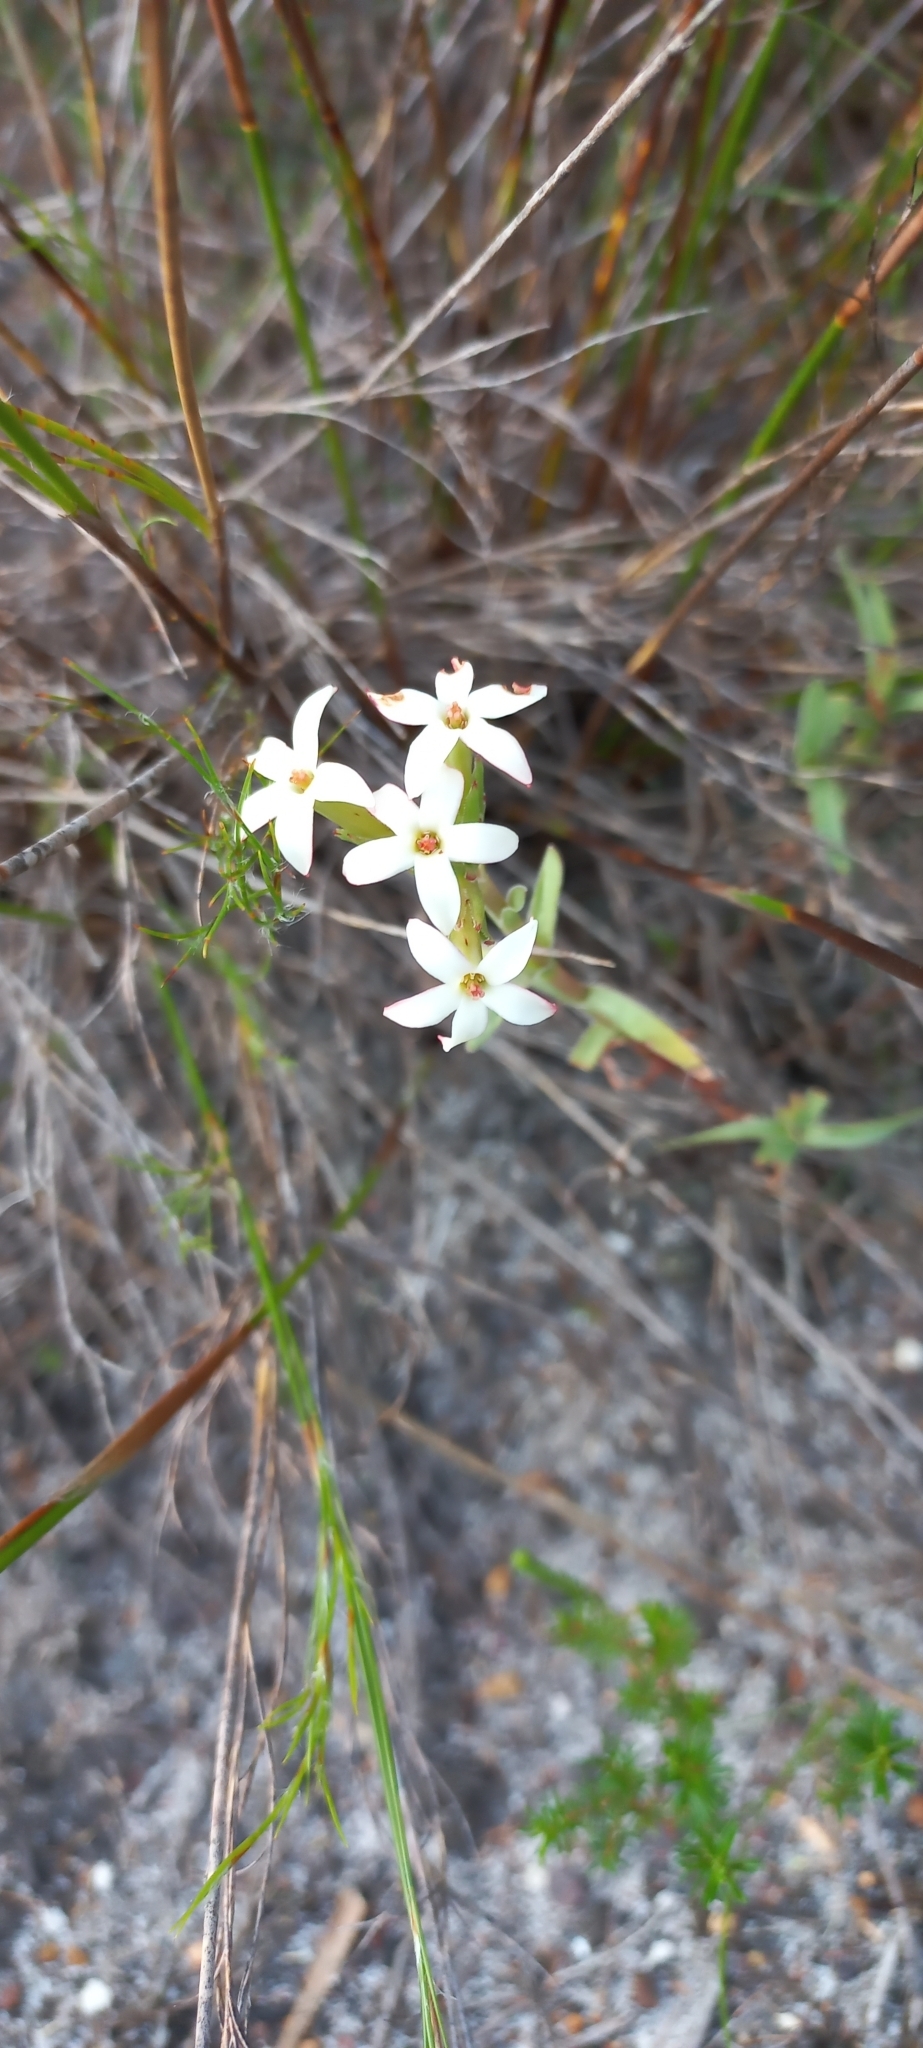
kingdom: Plantae
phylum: Tracheophyta
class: Magnoliopsida
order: Saxifragales
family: Crassulaceae
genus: Crassula
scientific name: Crassula fascicularis
